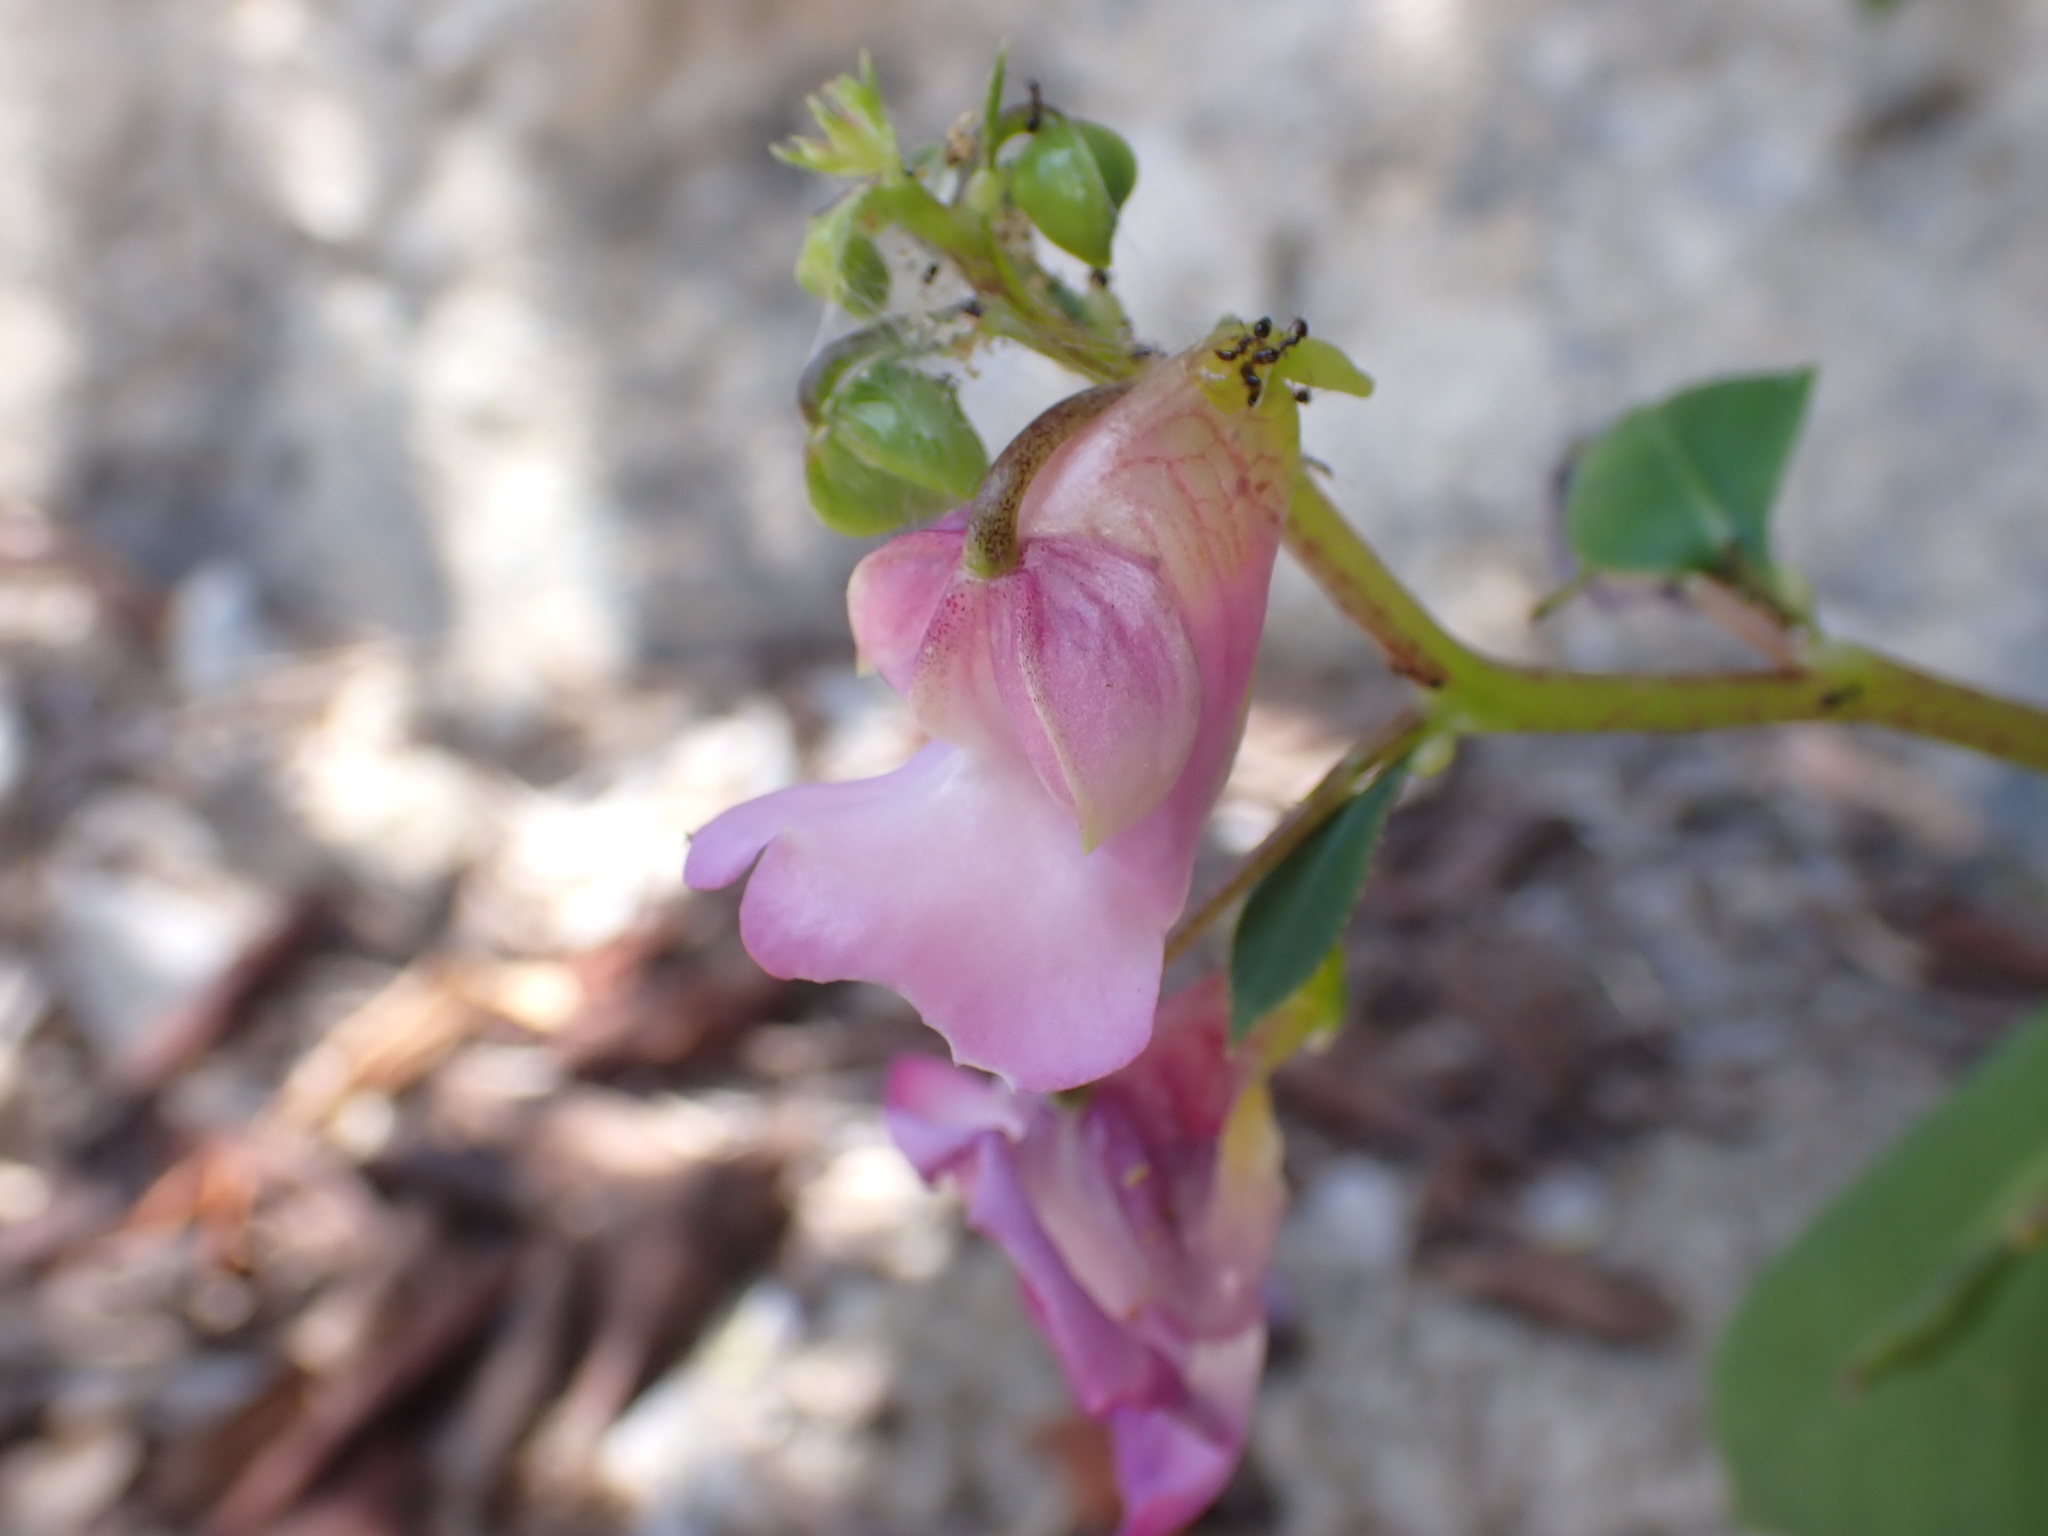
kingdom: Plantae
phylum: Tracheophyta
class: Magnoliopsida
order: Ericales
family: Balsaminaceae
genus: Impatiens
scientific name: Impatiens putii
